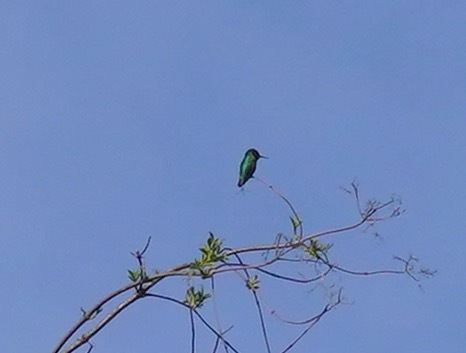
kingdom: Animalia
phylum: Chordata
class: Aves
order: Apodiformes
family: Trochilidae
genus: Calypte
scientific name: Calypte anna
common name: Anna's hummingbird
